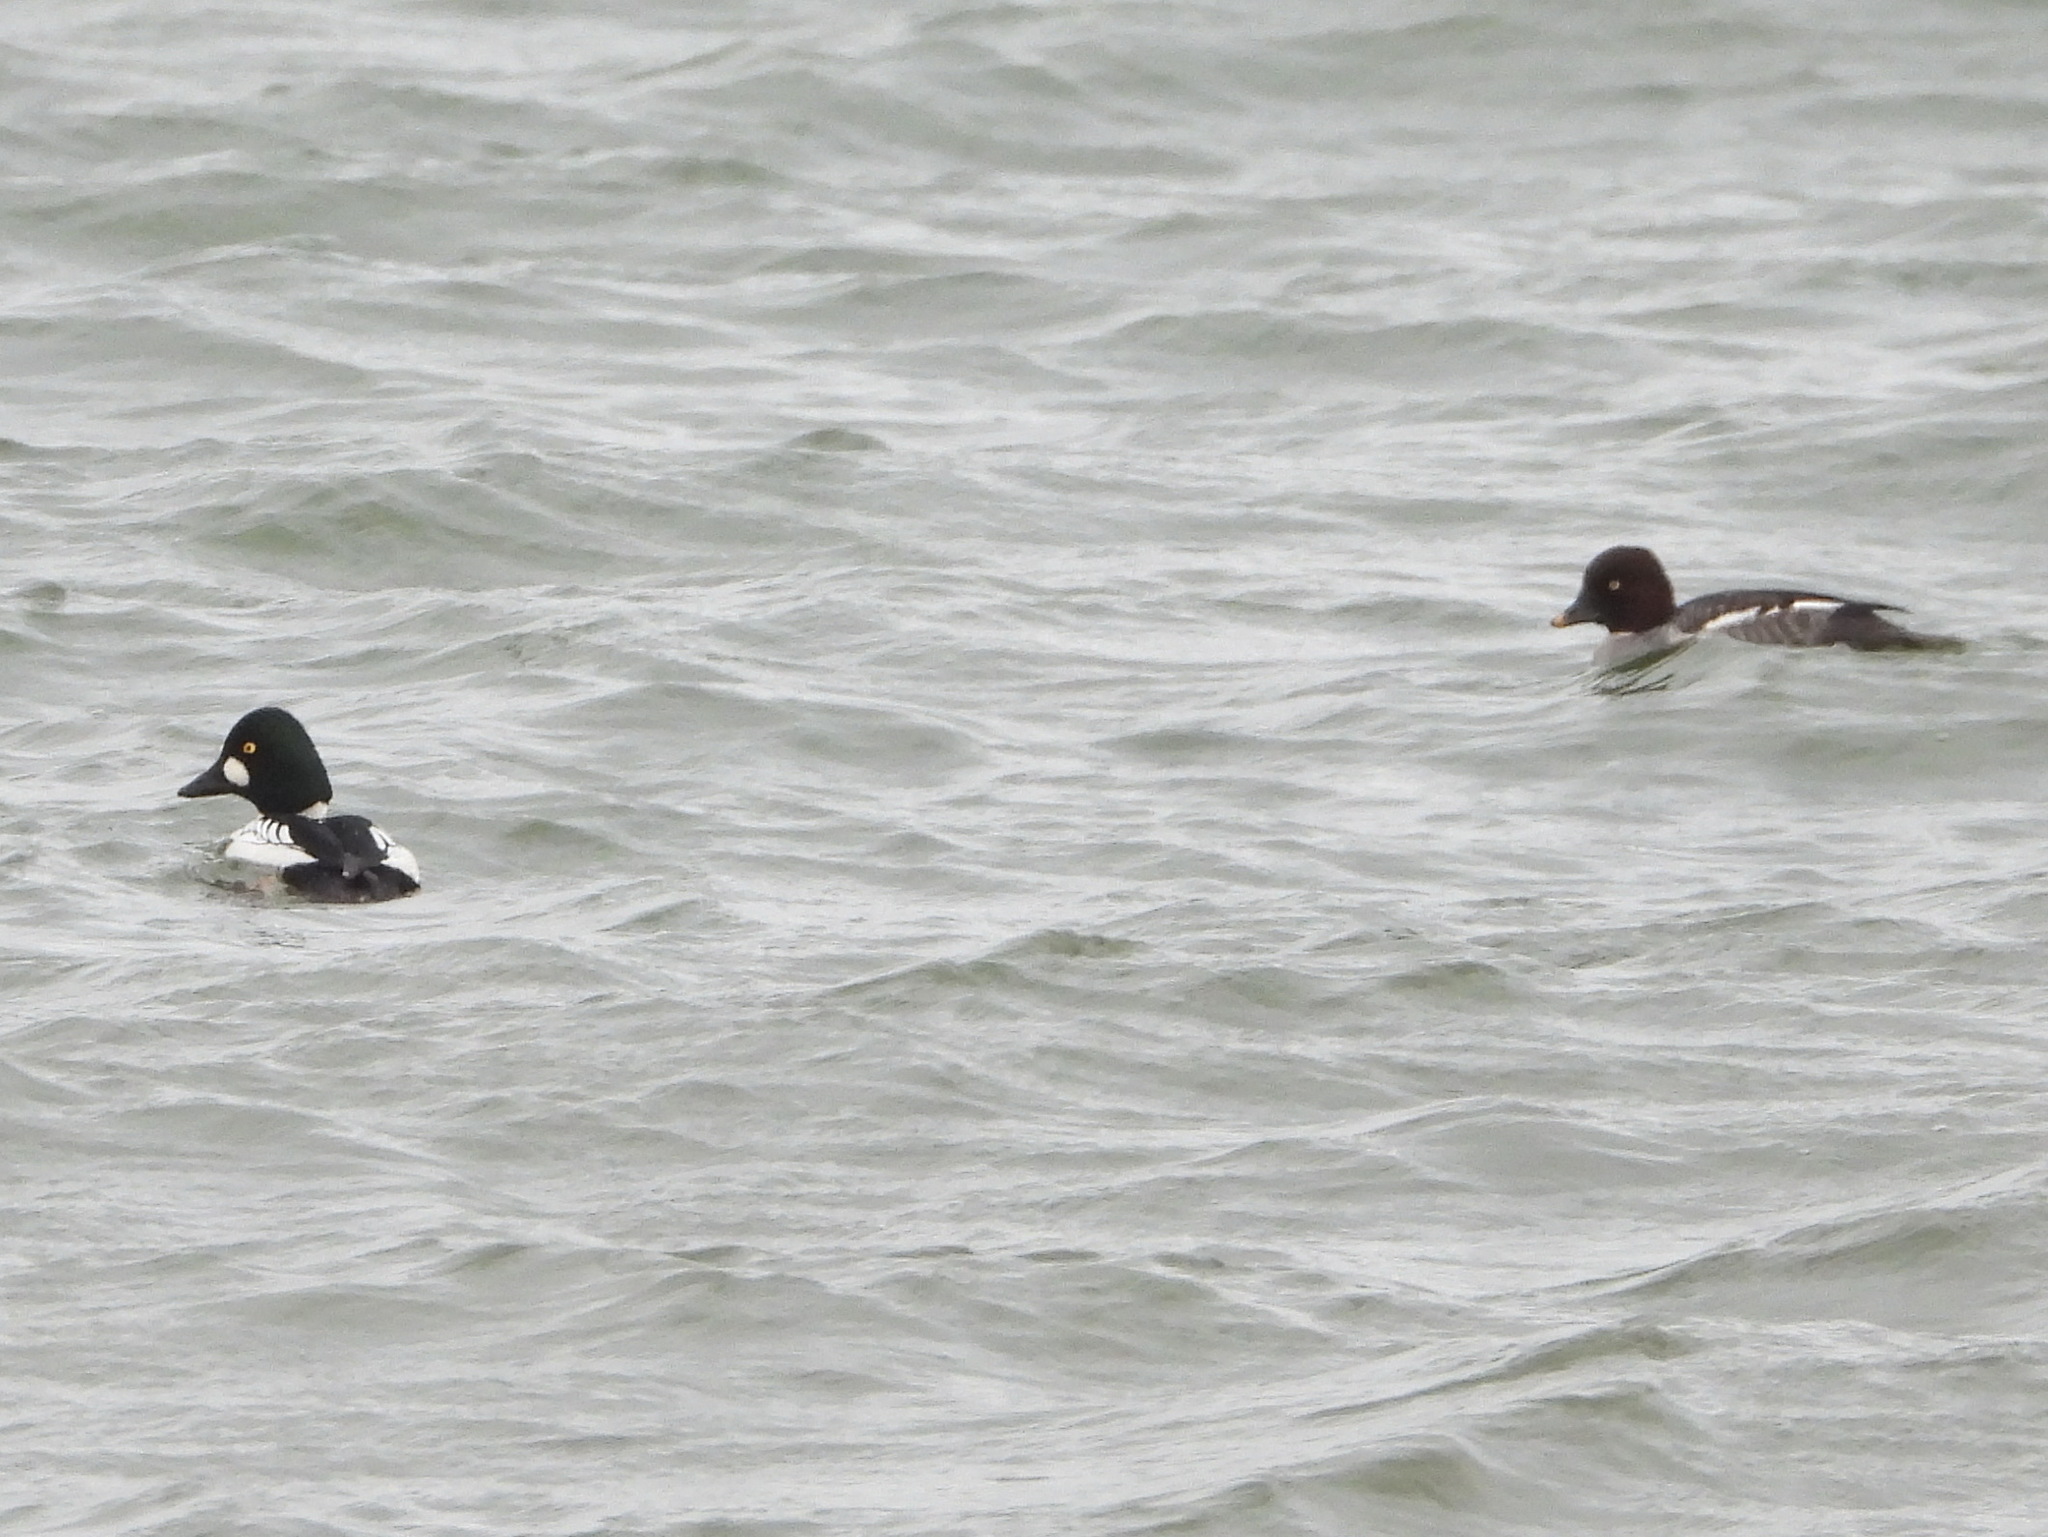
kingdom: Animalia
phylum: Chordata
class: Aves
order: Anseriformes
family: Anatidae
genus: Bucephala
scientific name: Bucephala clangula
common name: Common goldeneye
